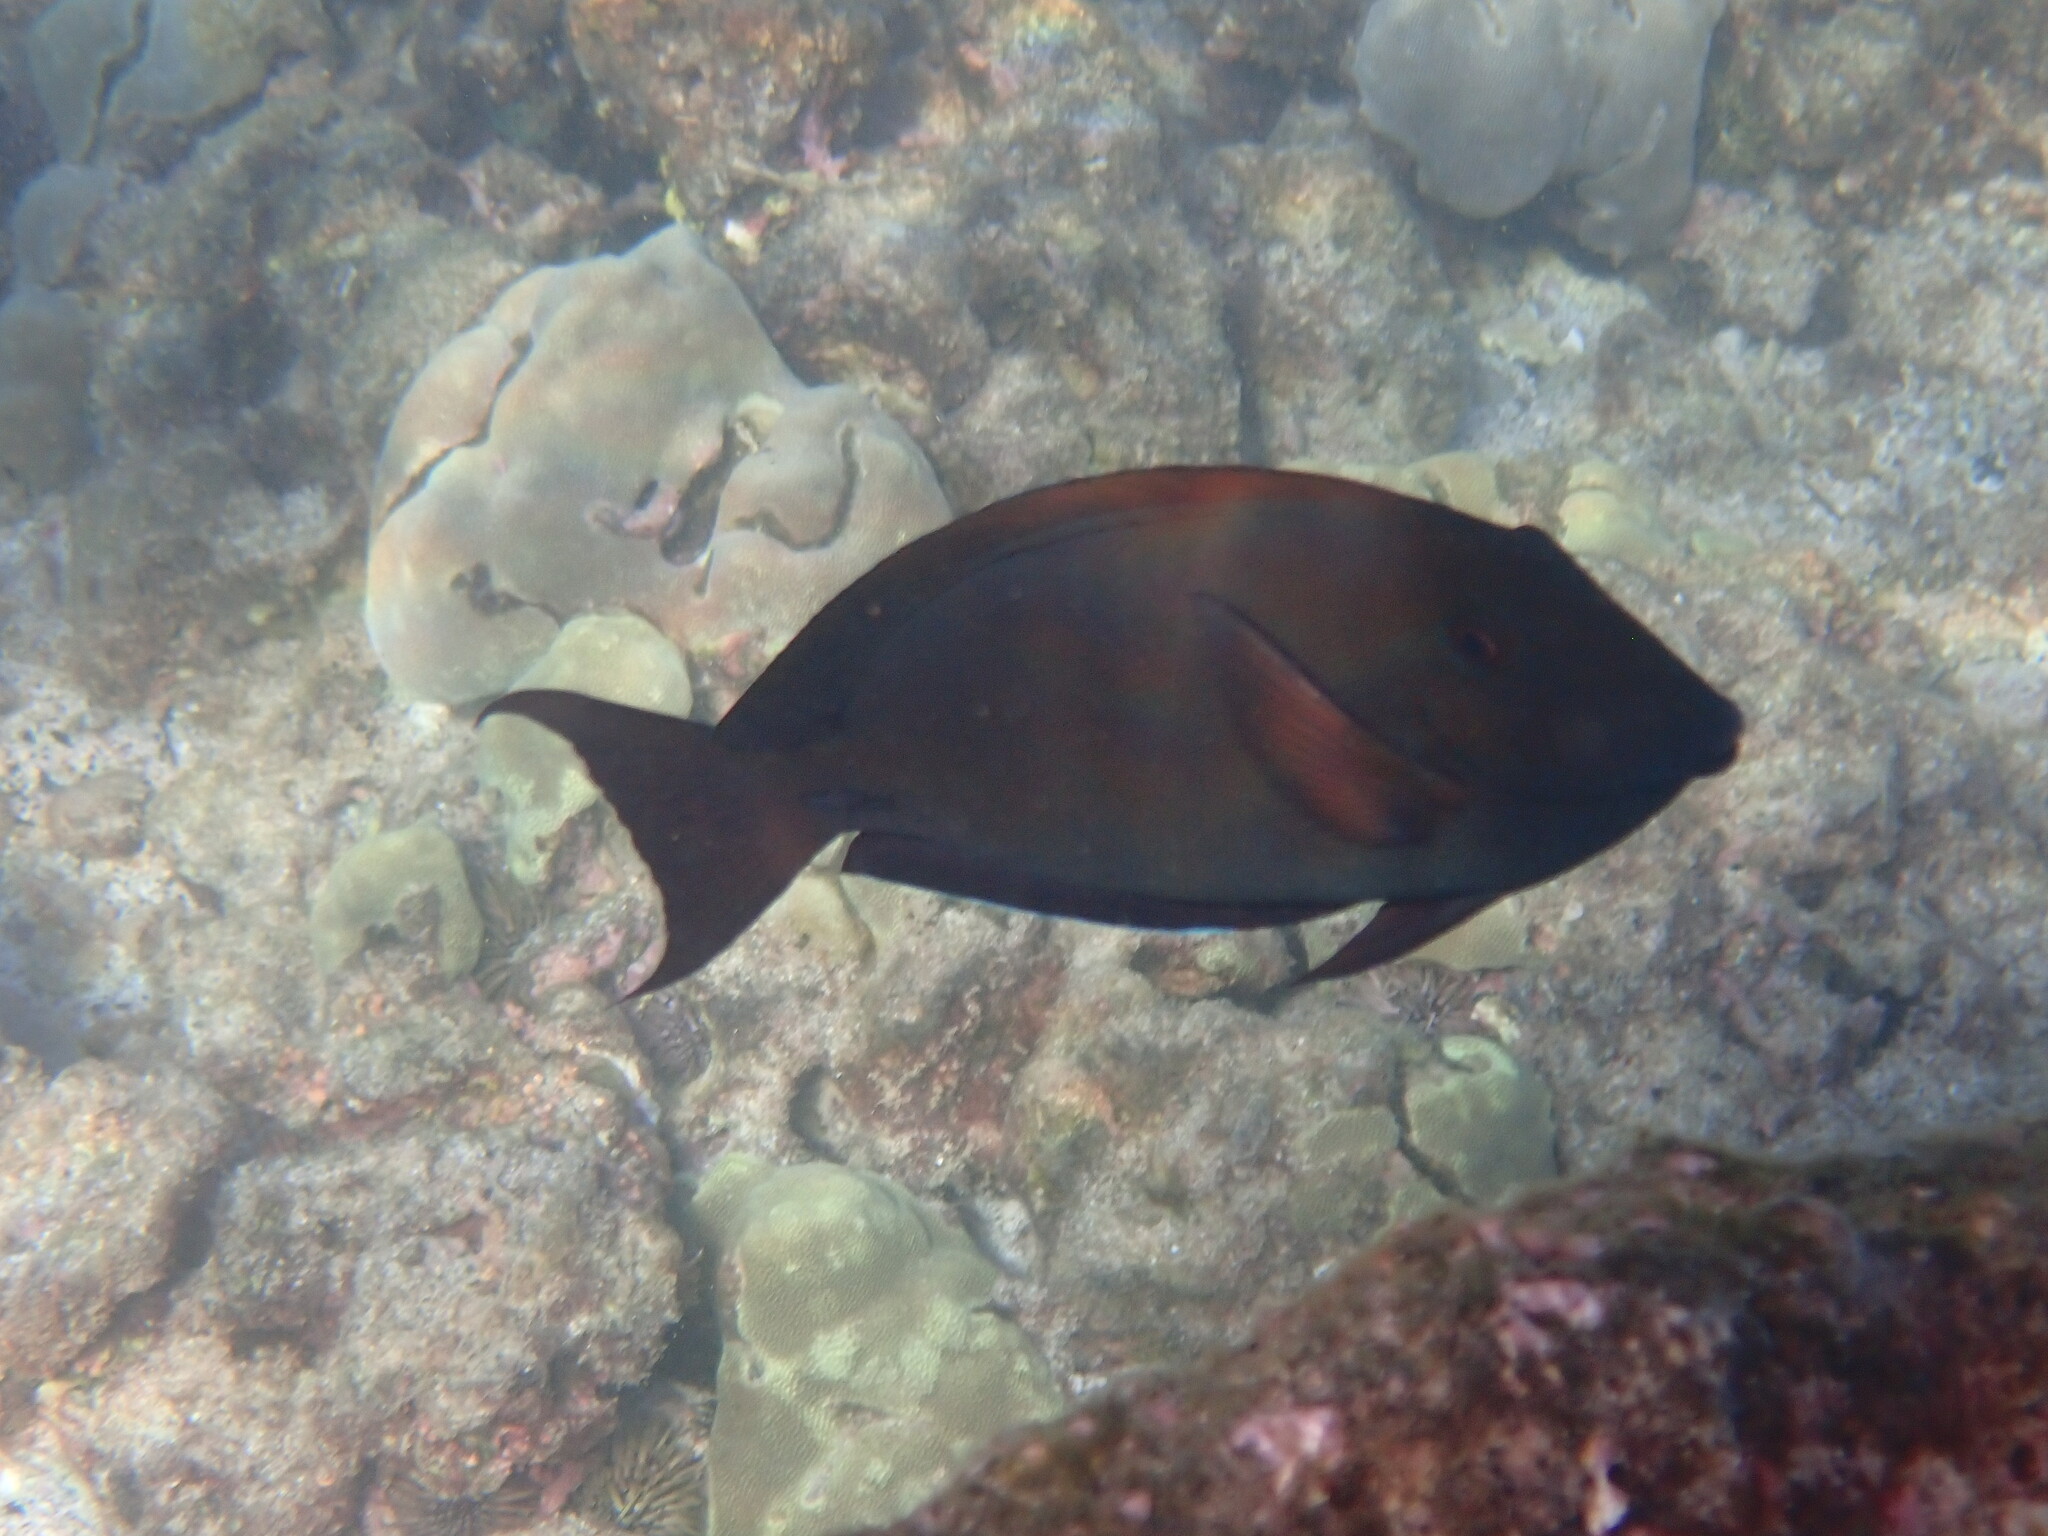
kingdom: Animalia
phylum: Chordata
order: Perciformes
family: Acanthuridae
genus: Acanthurus
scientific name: Acanthurus nigrofuscus
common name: Blackspot surgeonfish
